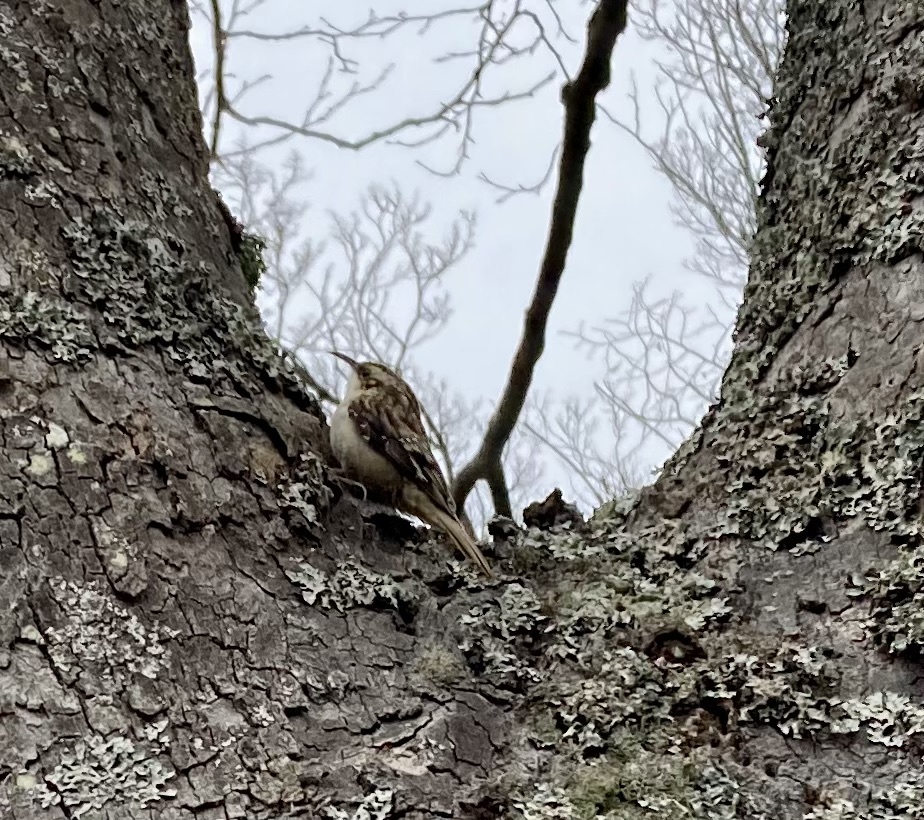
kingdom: Animalia
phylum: Chordata
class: Aves
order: Passeriformes
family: Certhiidae
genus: Certhia
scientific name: Certhia americana
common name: Brown creeper
